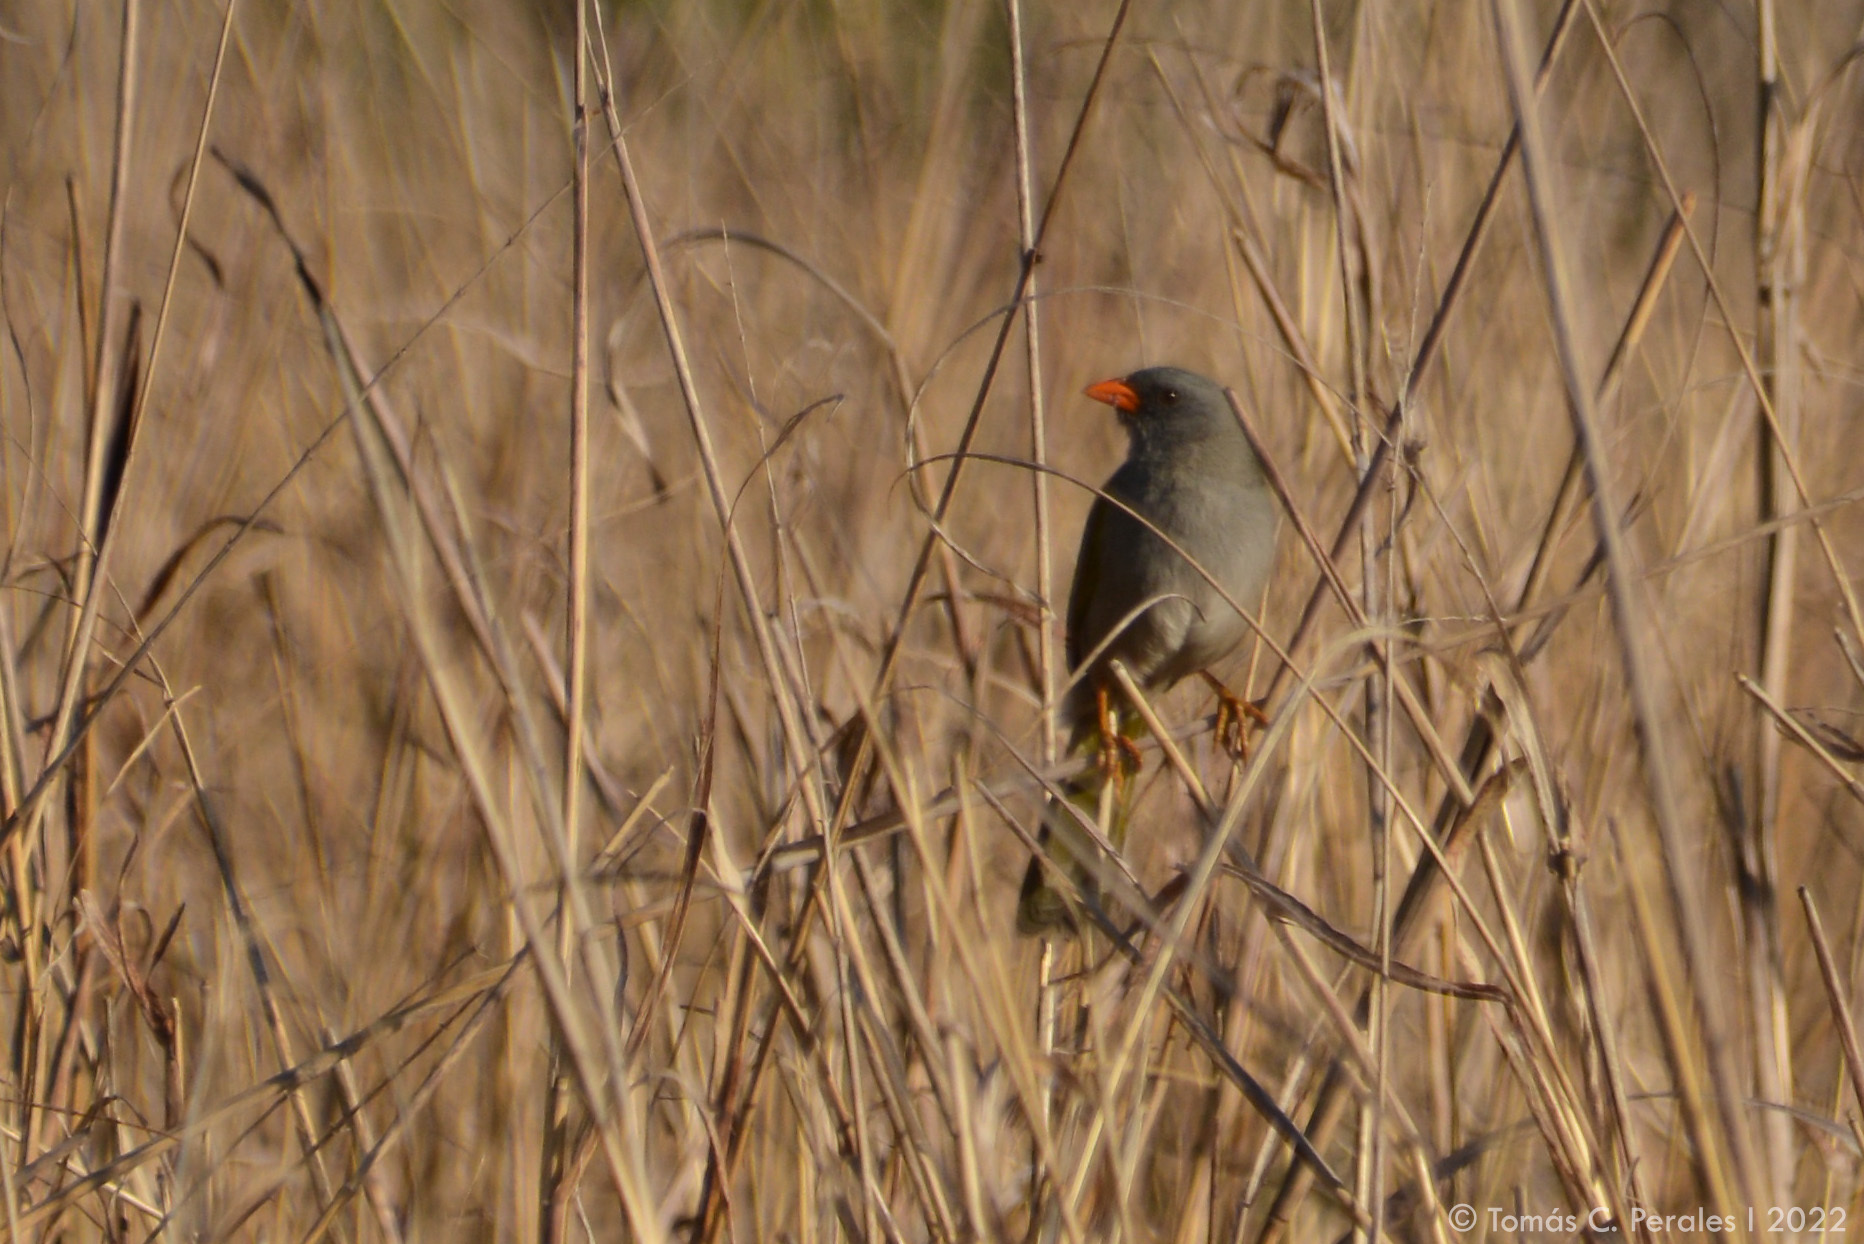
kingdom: Animalia
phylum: Chordata
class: Aves
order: Passeriformes
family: Thraupidae
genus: Embernagra
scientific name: Embernagra platensis
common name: Pampa finch
